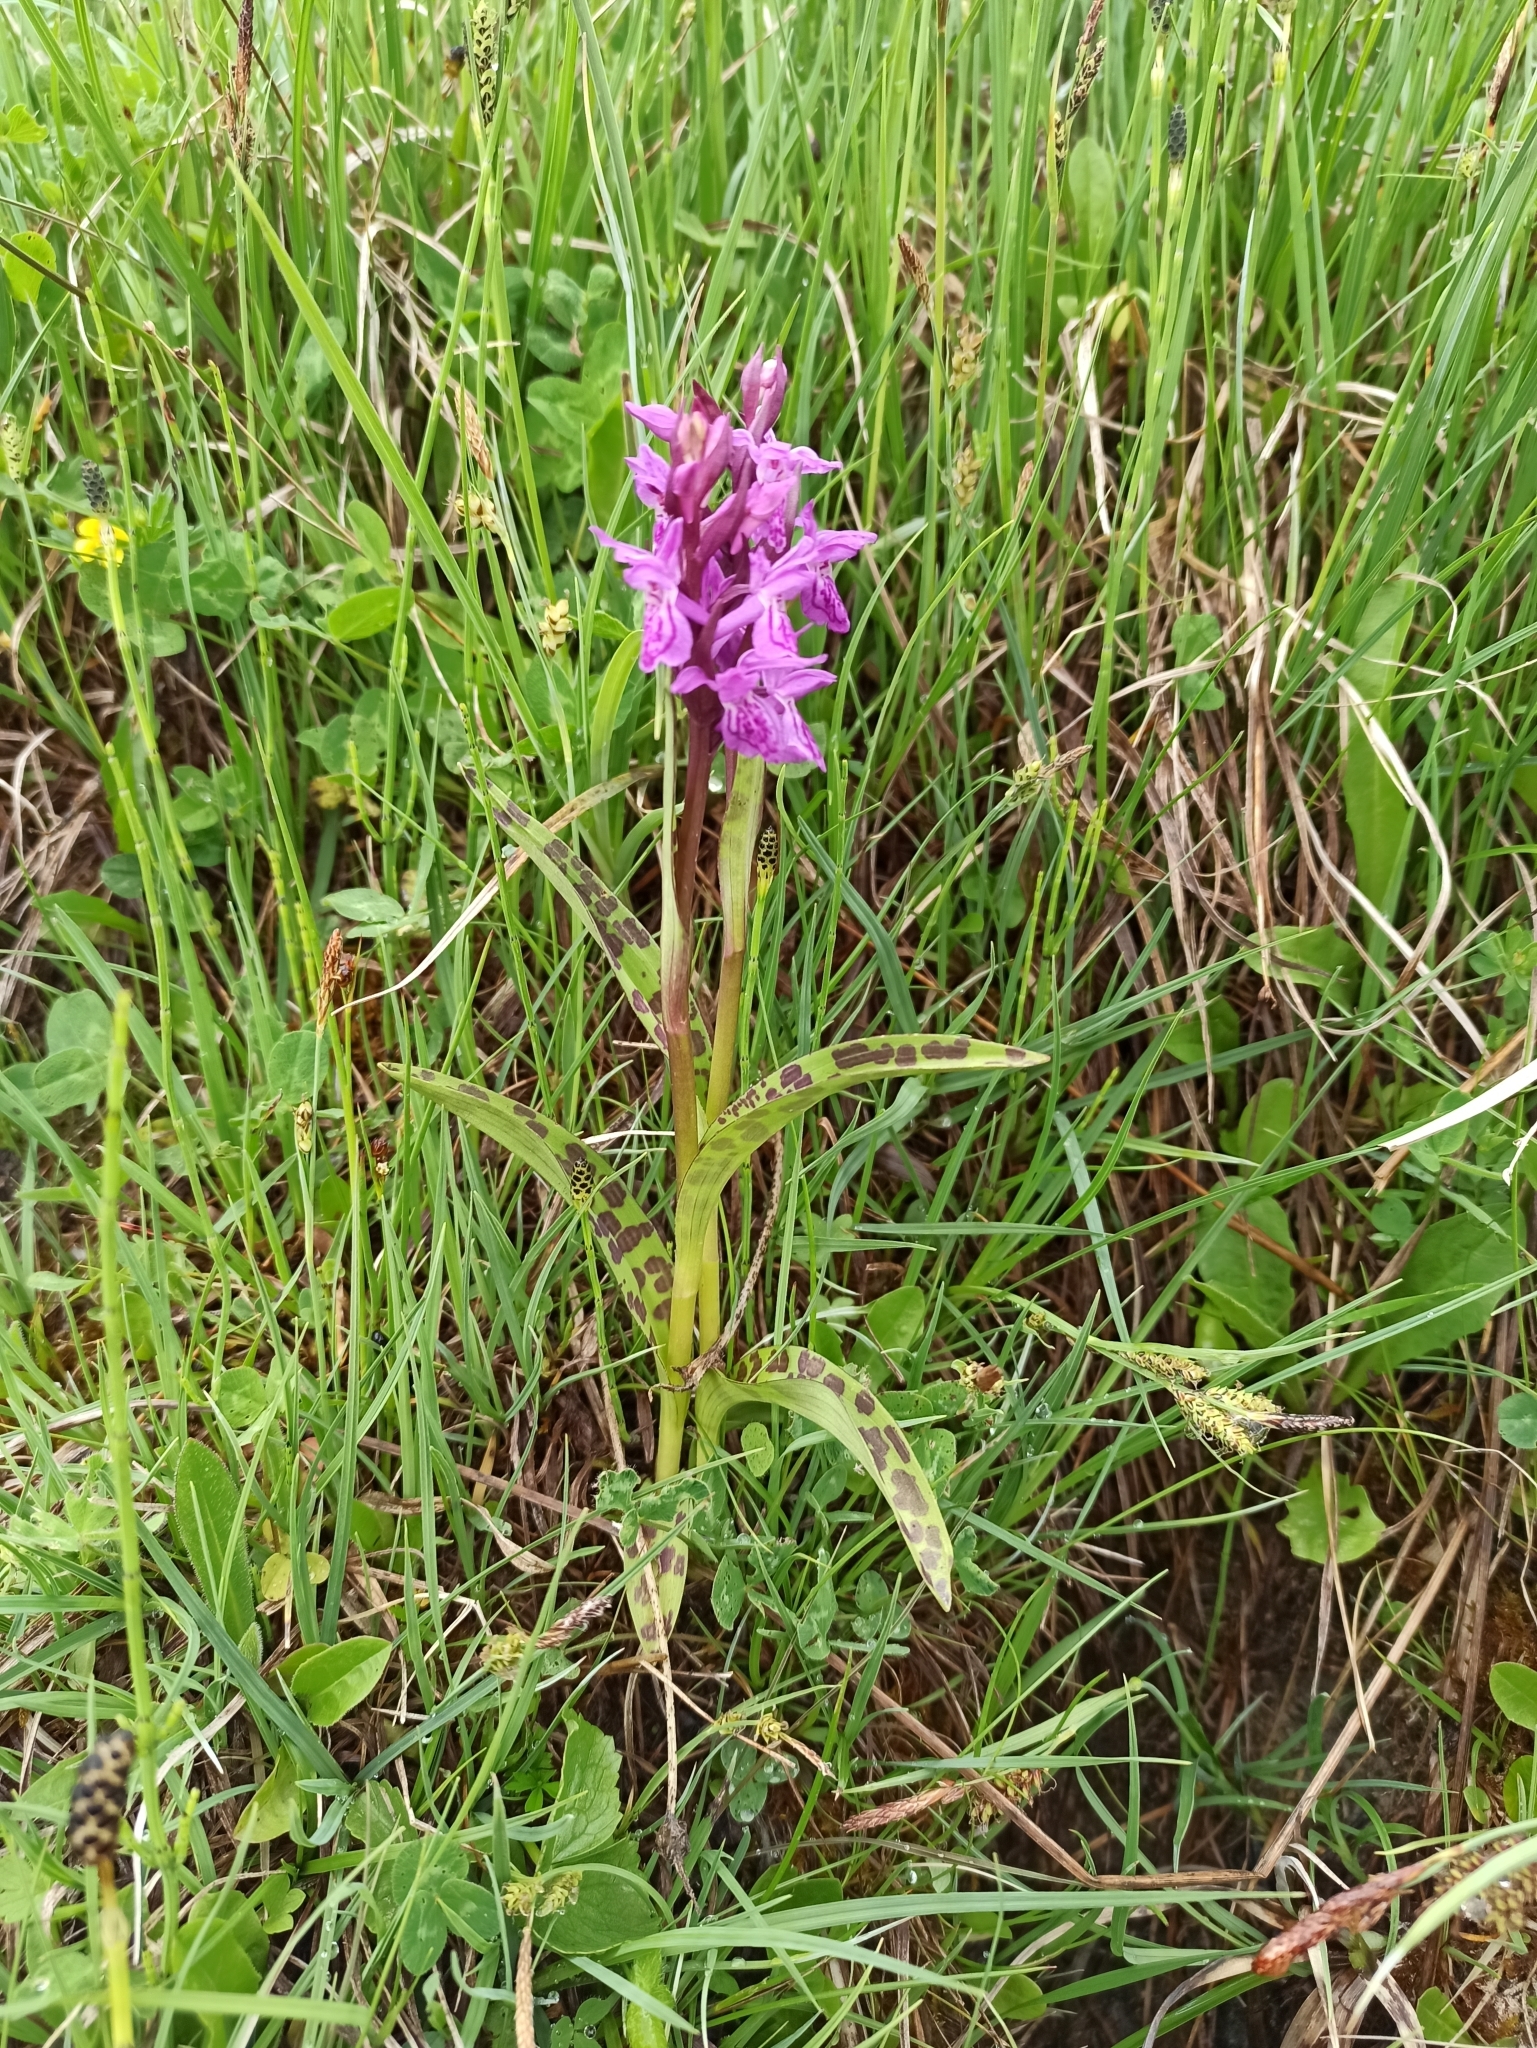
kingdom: Plantae
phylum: Tracheophyta
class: Liliopsida
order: Asparagales
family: Orchidaceae
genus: Dactylorhiza
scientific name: Dactylorhiza majalis
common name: Marsh orchid
